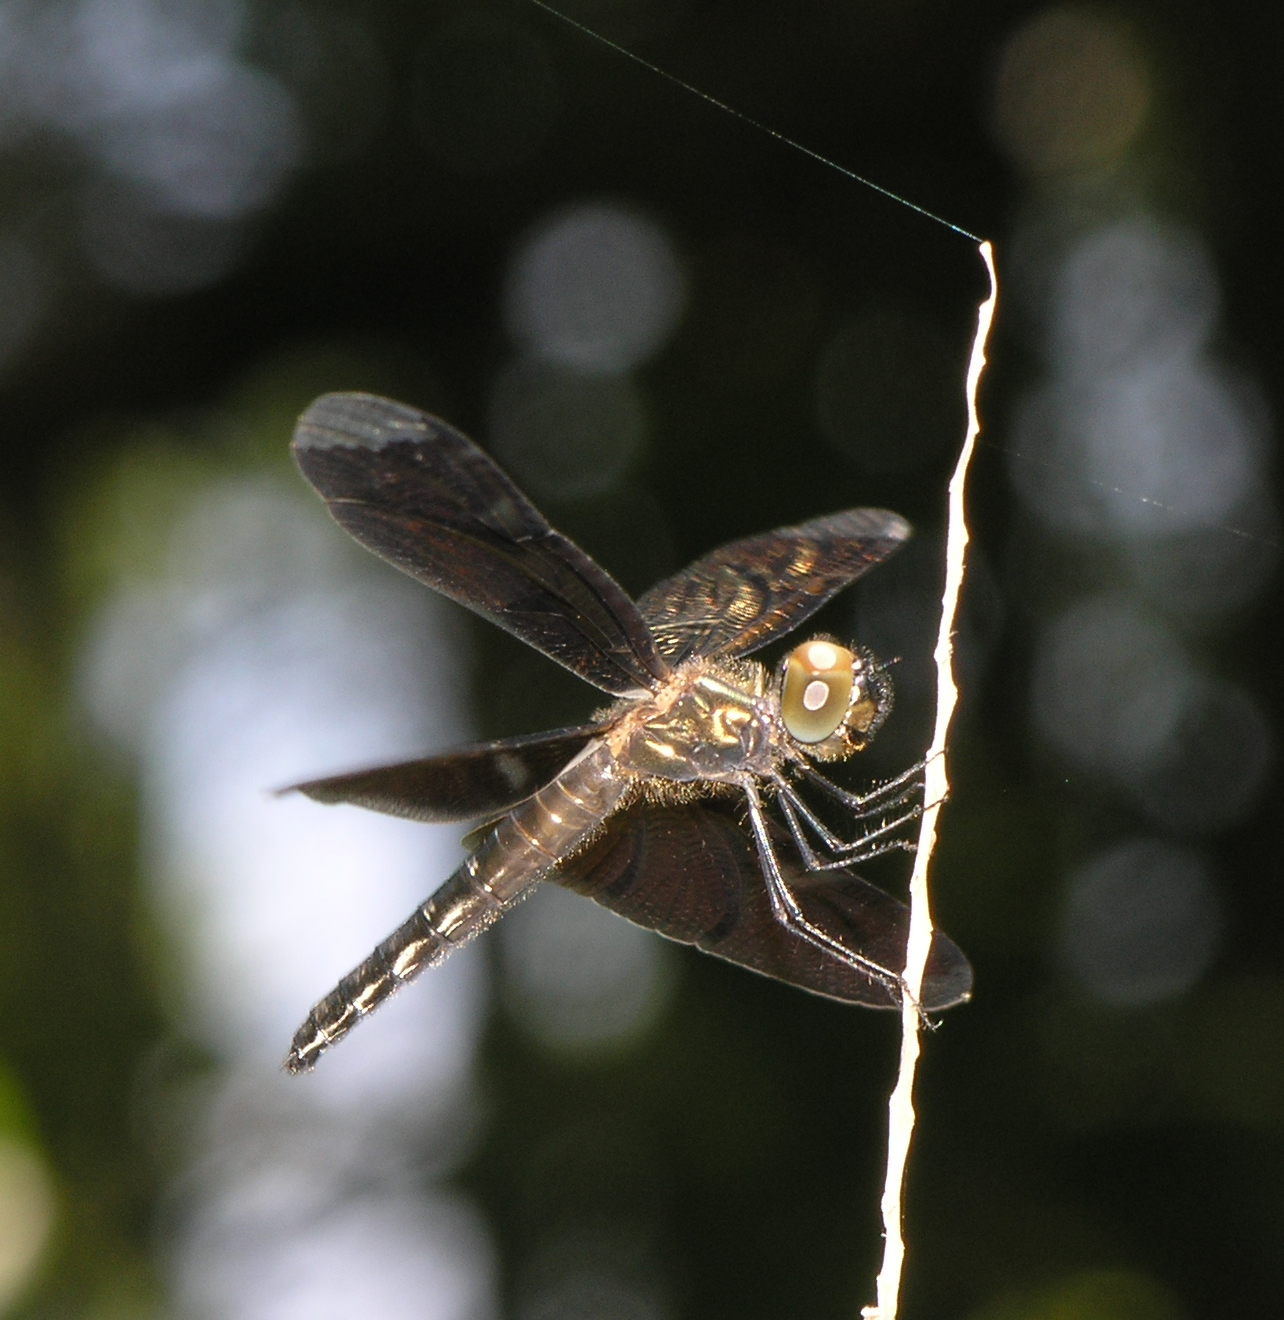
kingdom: Animalia
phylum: Arthropoda
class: Insecta
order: Odonata
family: Libellulidae
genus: Rhyothemis
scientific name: Rhyothemis obsolescens
